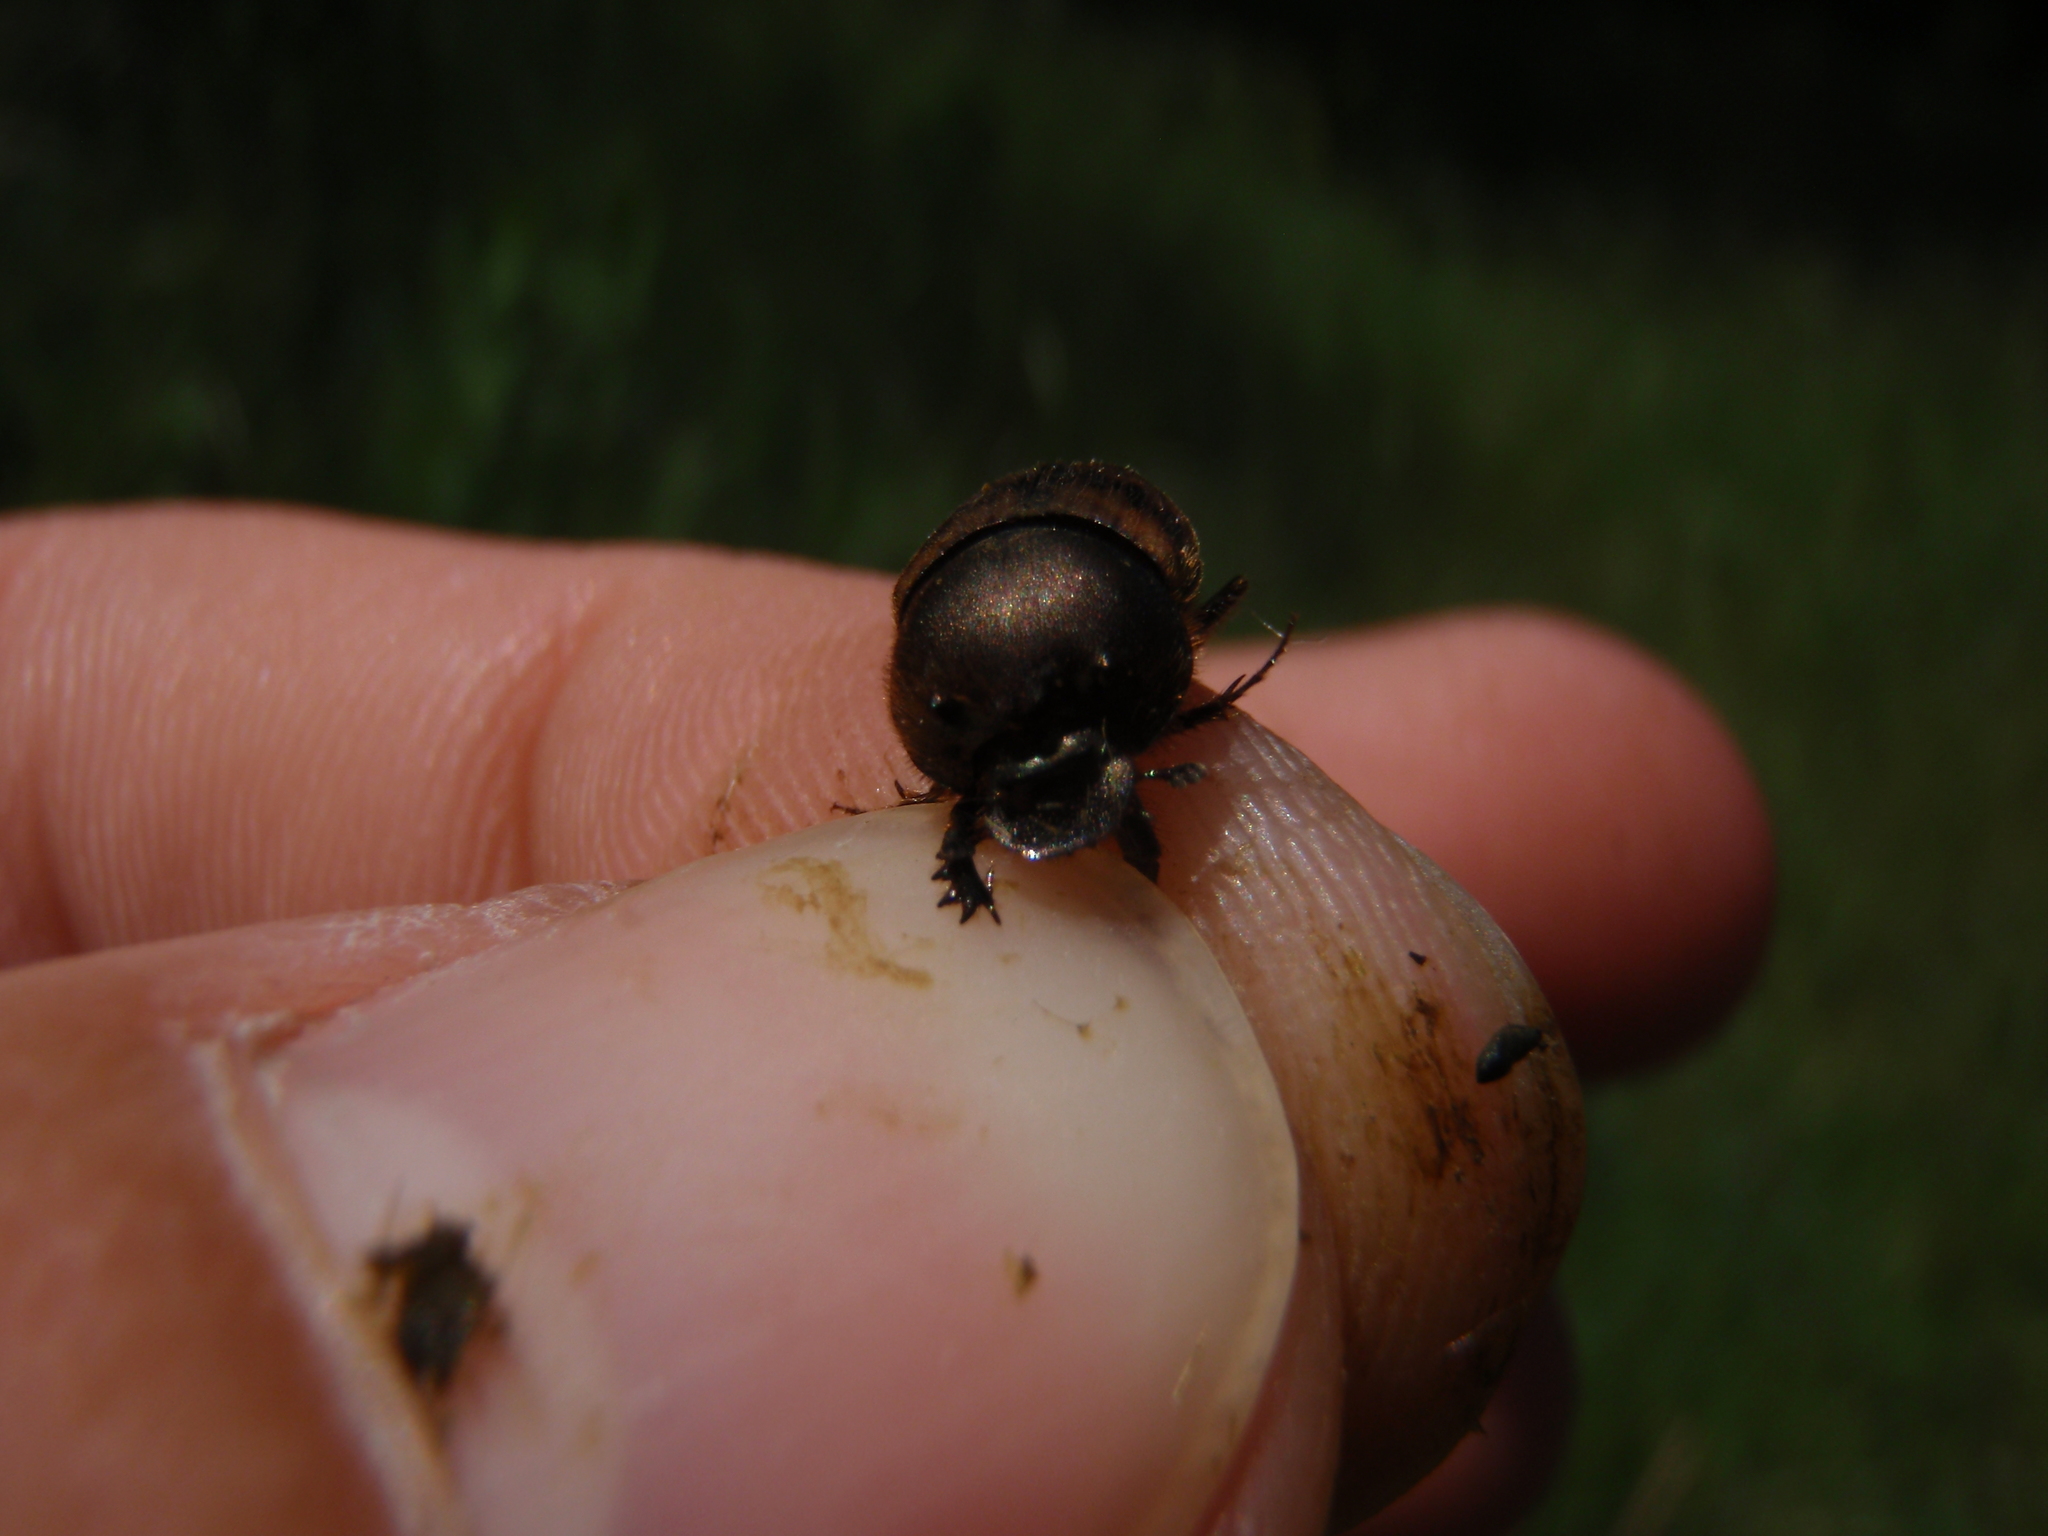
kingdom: Animalia
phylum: Arthropoda
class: Insecta
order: Coleoptera
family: Scarabaeidae
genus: Onthophagus
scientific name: Onthophagus lemur
